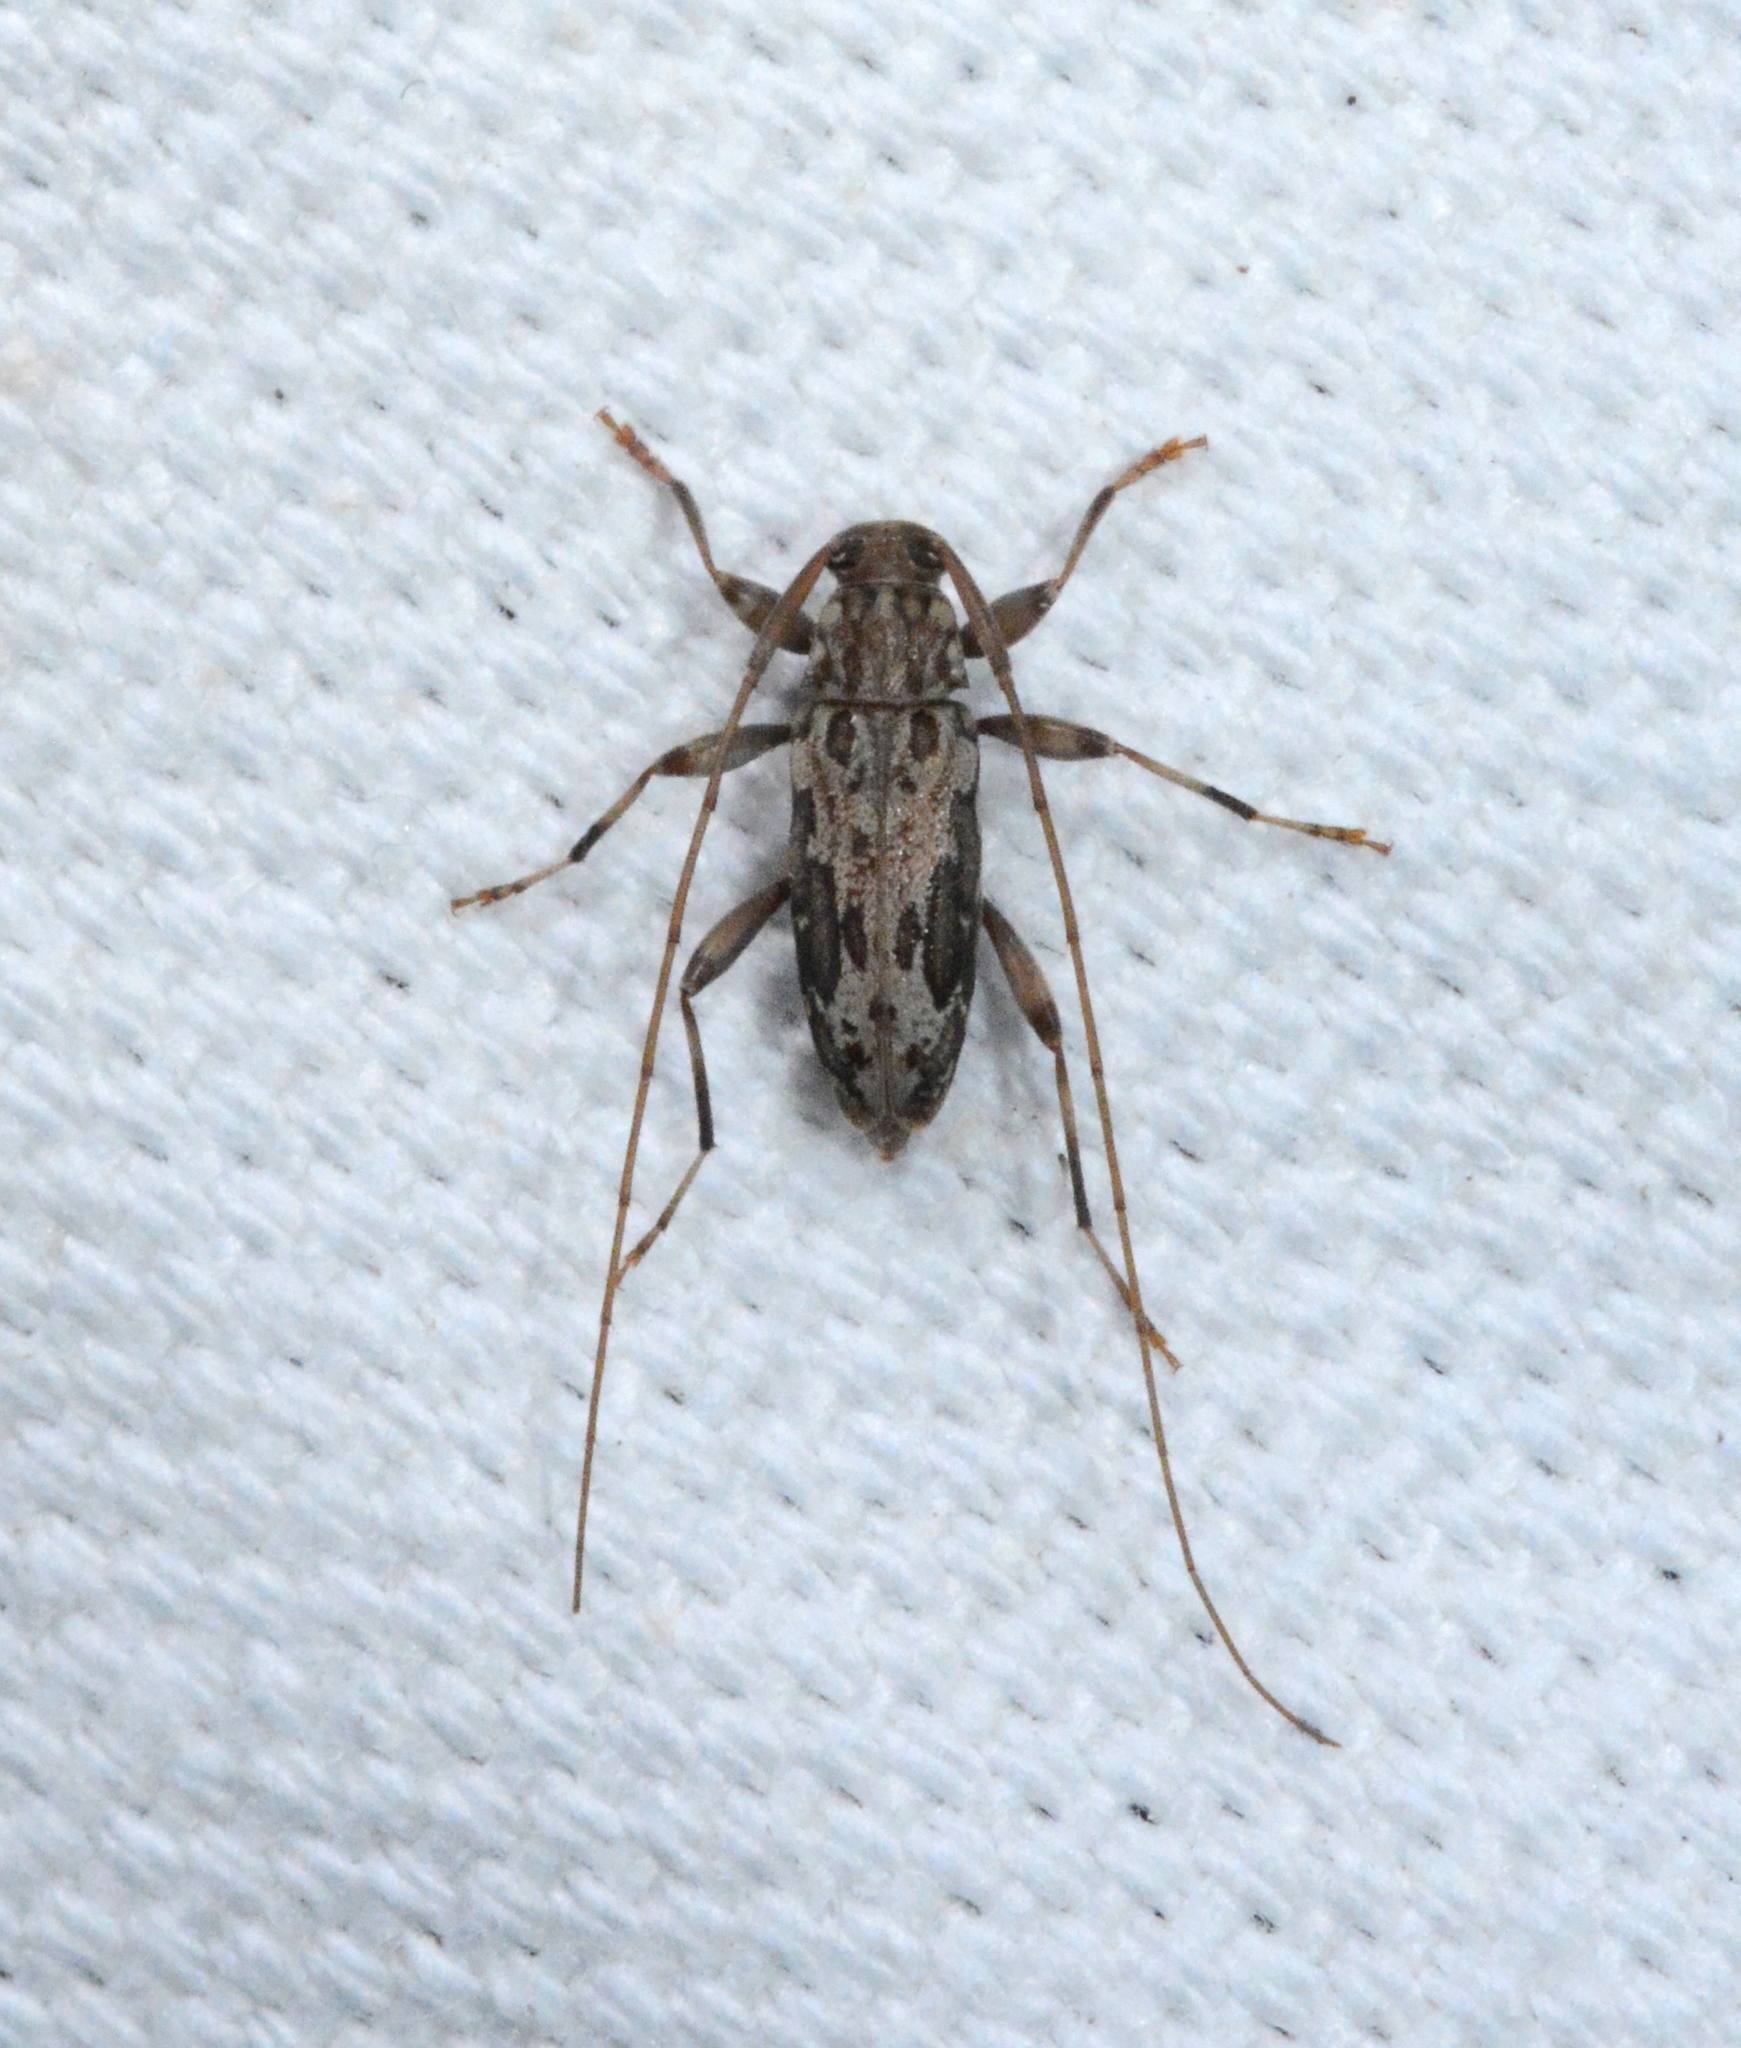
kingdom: Animalia
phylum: Arthropoda
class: Insecta
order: Coleoptera
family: Cerambycidae
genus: Lepturges
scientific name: Lepturges confluens
